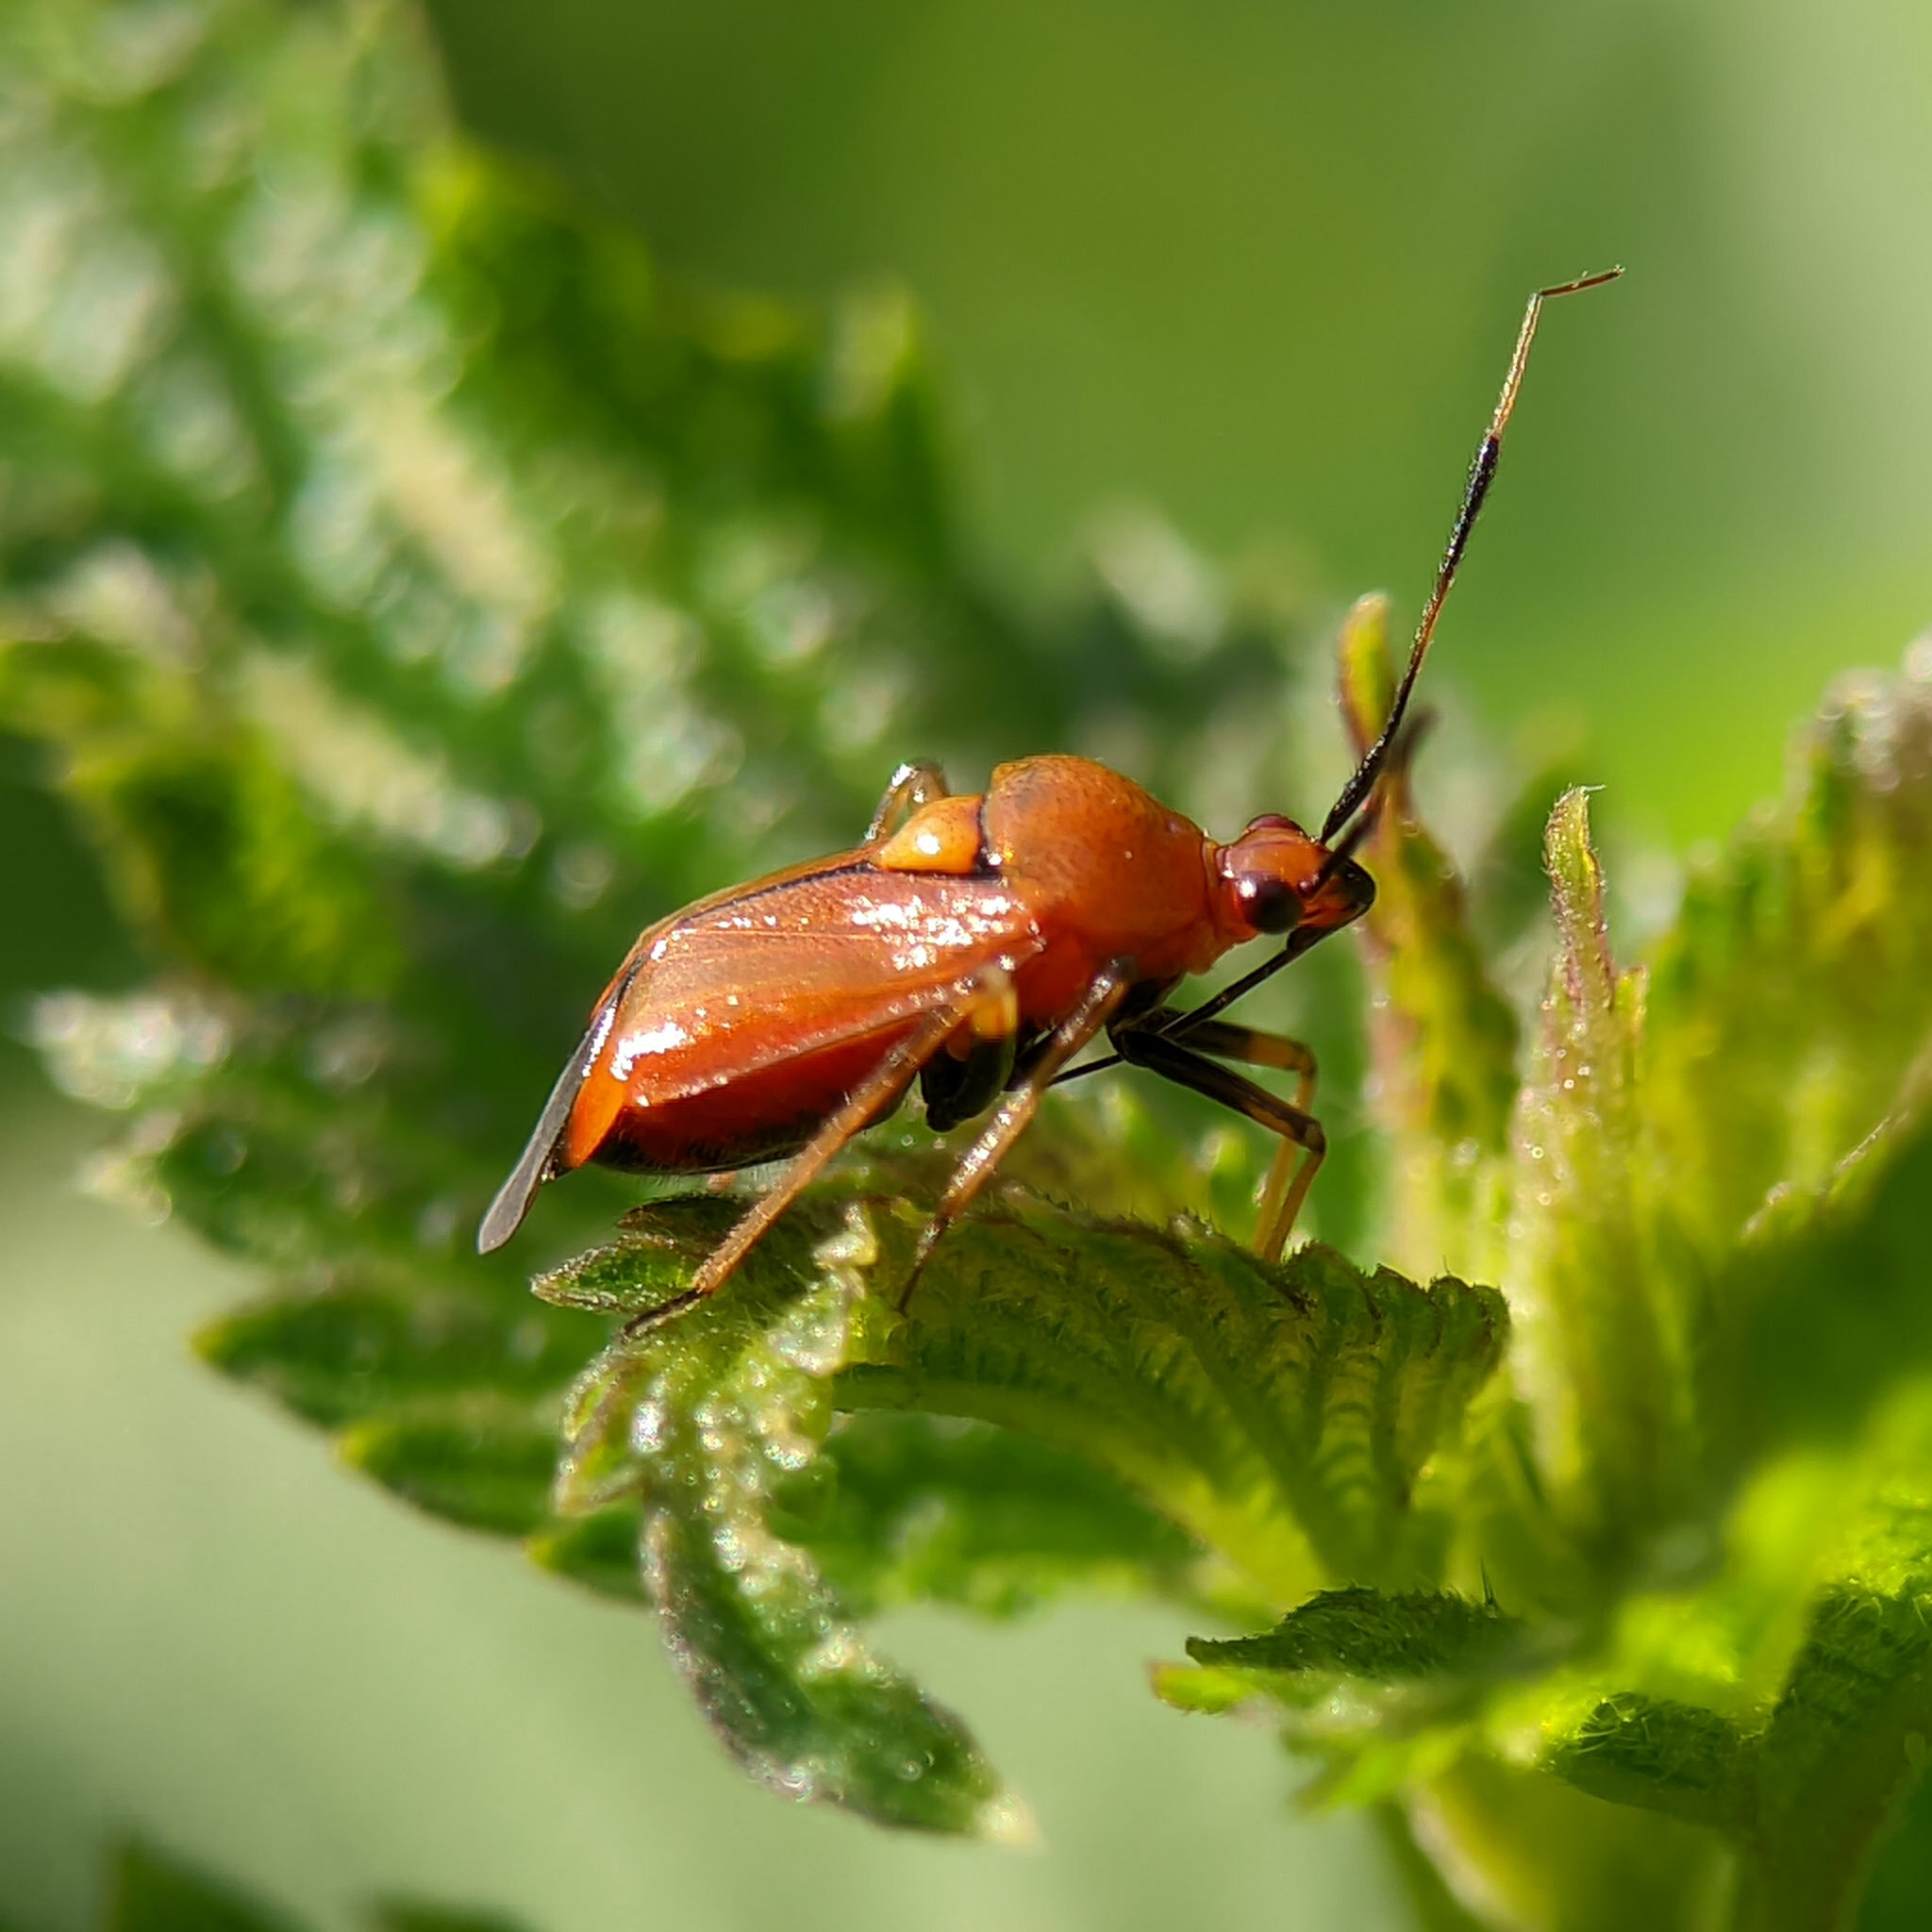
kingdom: Animalia
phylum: Arthropoda
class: Insecta
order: Hemiptera
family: Miridae
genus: Deraeocoris
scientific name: Deraeocoris ruber
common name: Plant bug
